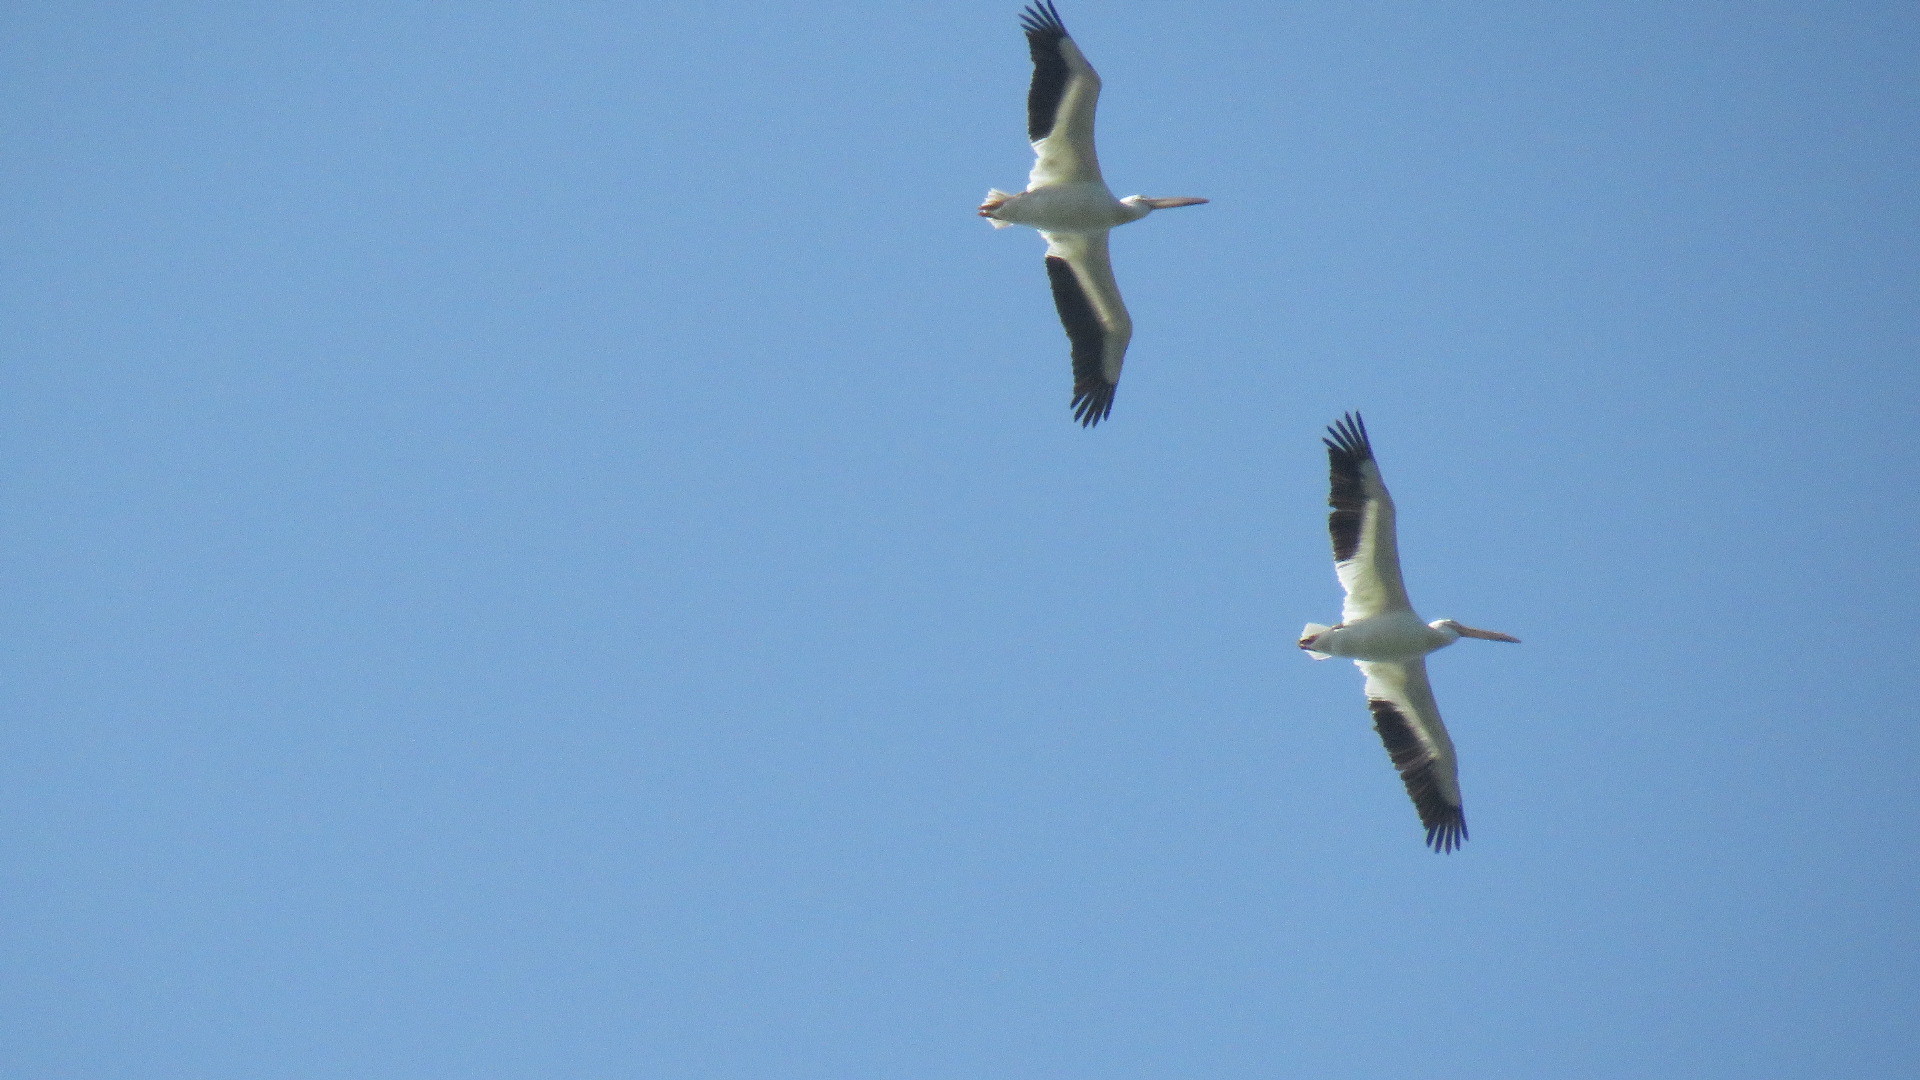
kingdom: Animalia
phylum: Chordata
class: Aves
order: Pelecaniformes
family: Pelecanidae
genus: Pelecanus
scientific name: Pelecanus erythrorhynchos
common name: American white pelican
